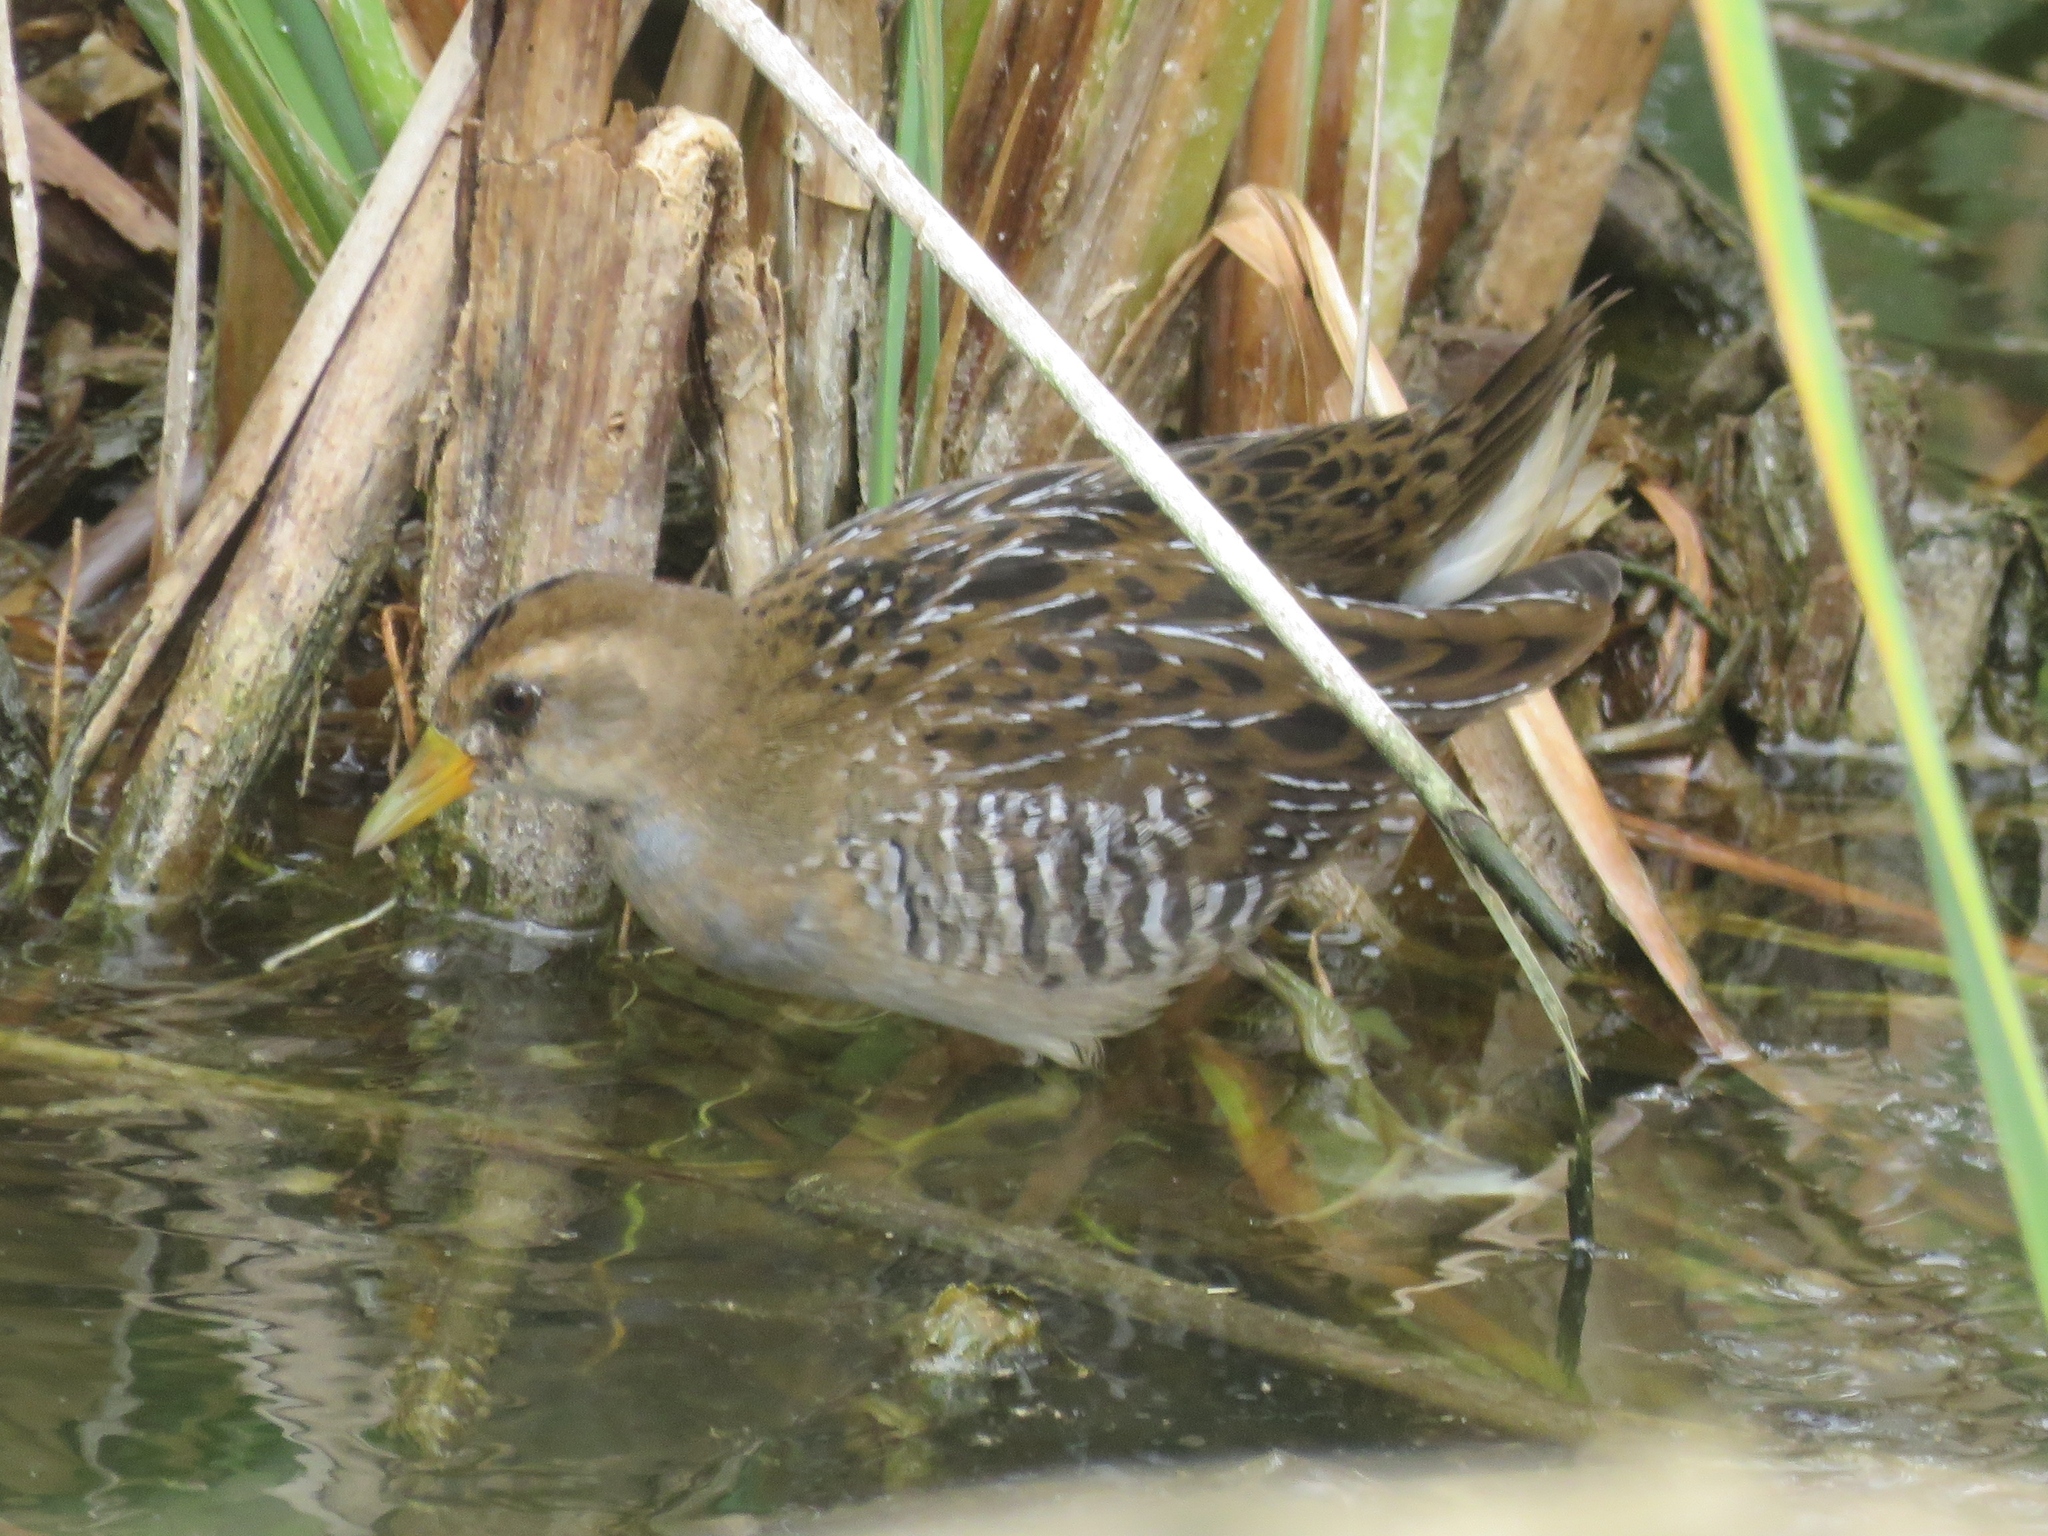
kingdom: Animalia
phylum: Chordata
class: Aves
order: Gruiformes
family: Rallidae
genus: Porzana
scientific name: Porzana carolina
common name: Sora
